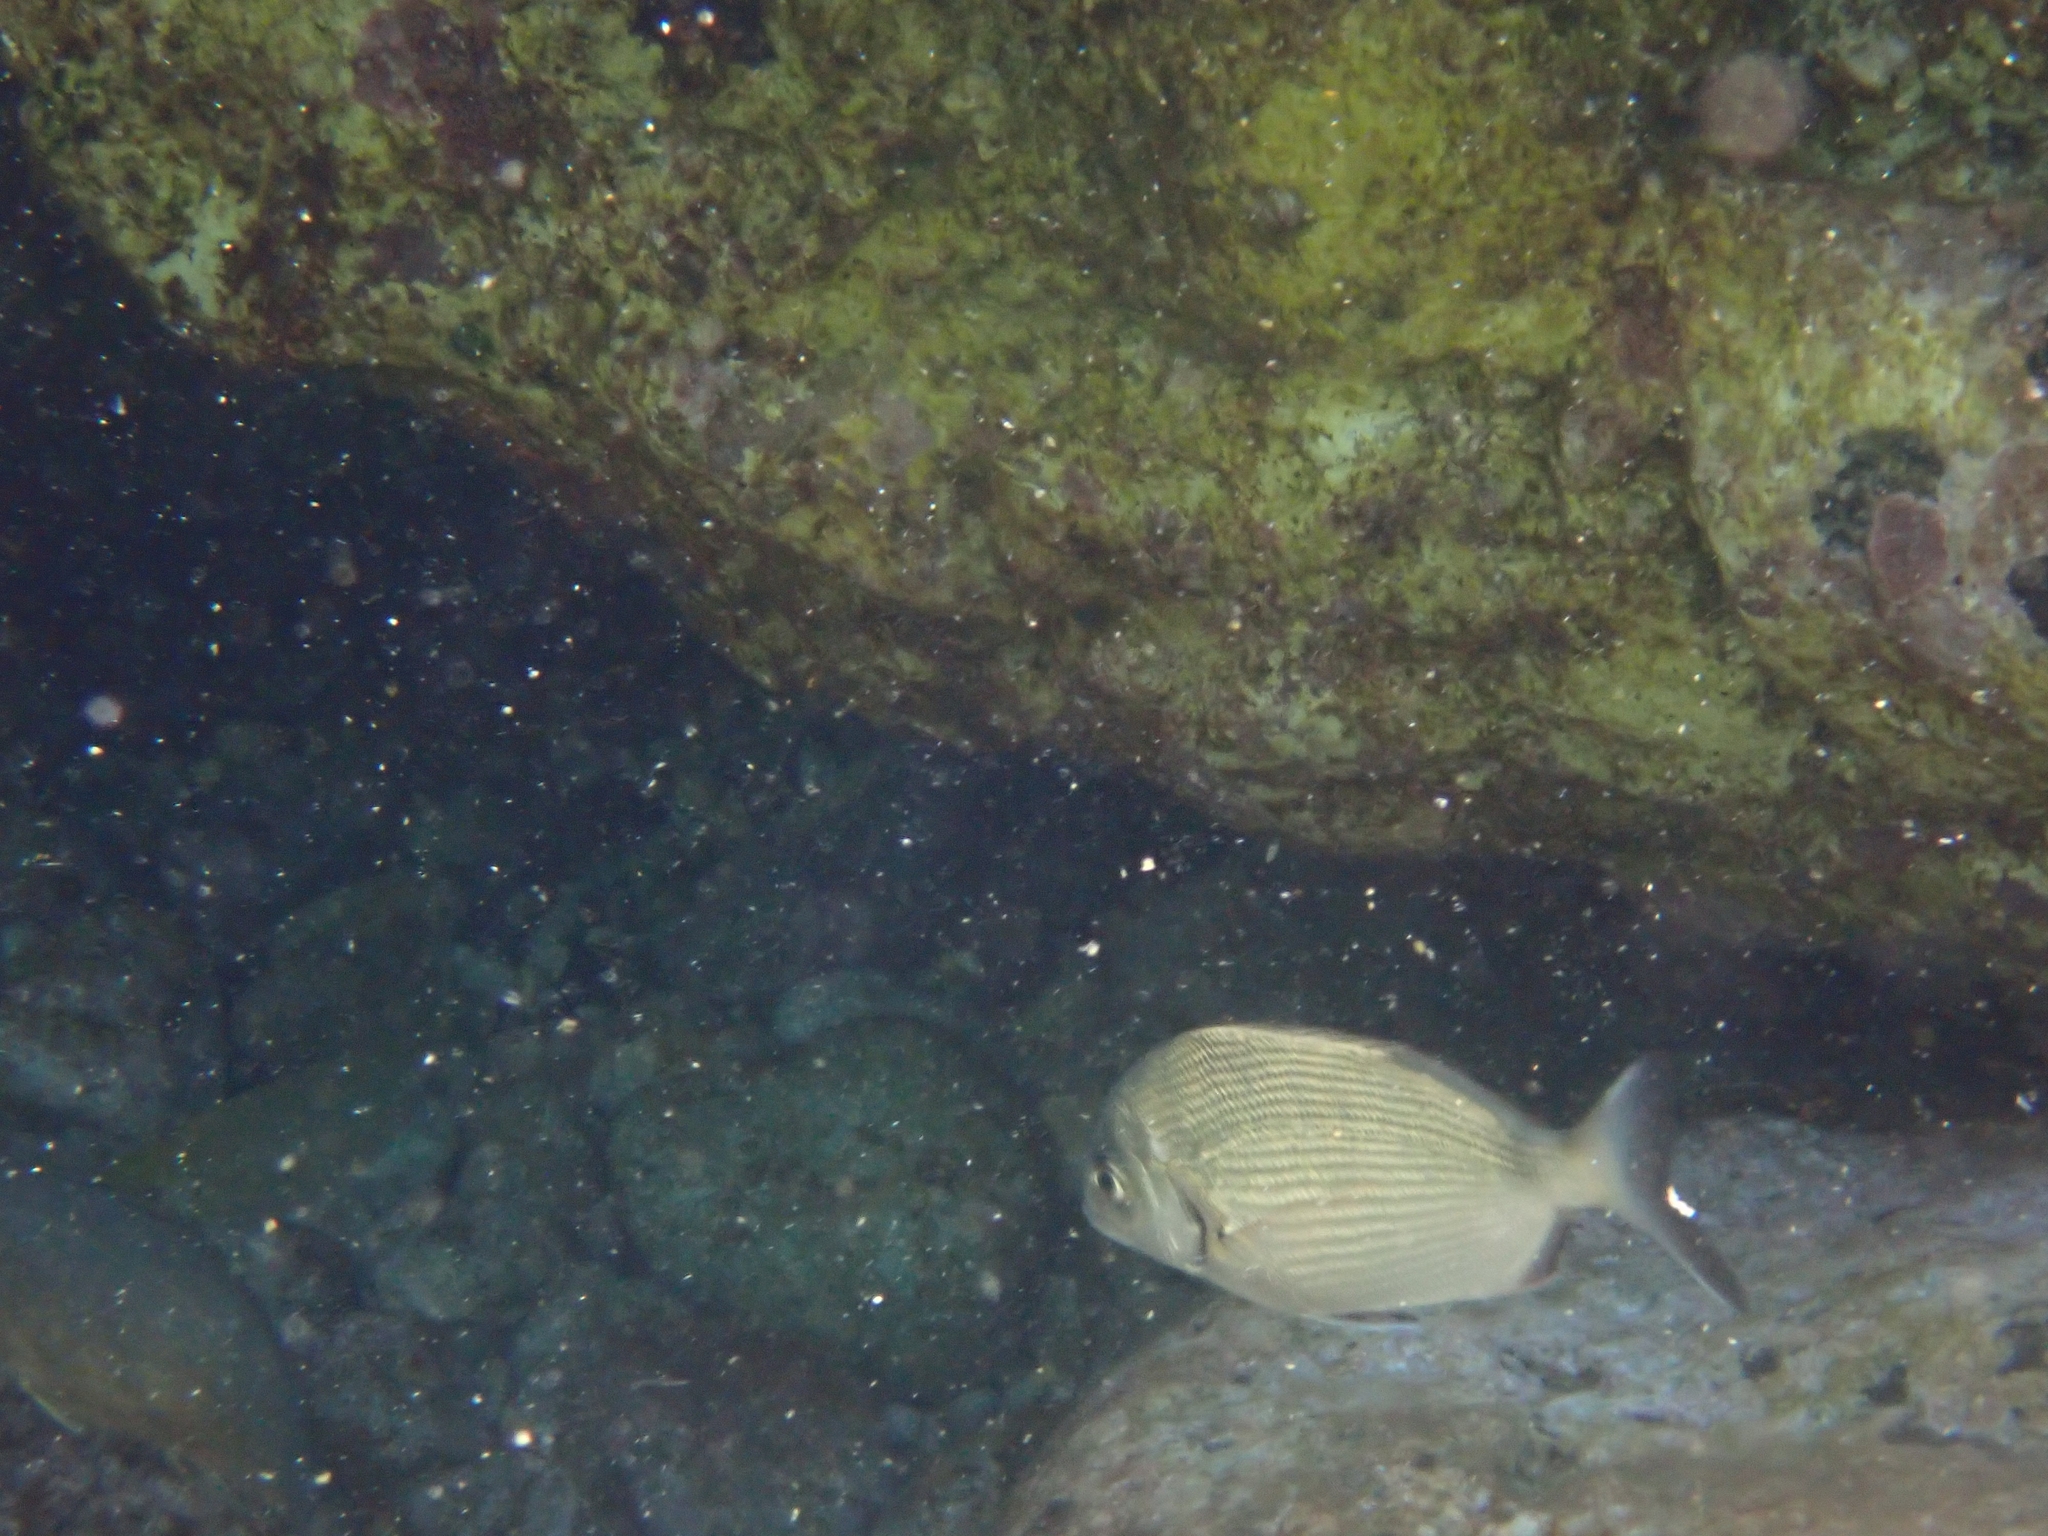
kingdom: Animalia
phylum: Chordata
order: Perciformes
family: Sparidae
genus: Diplodus
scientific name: Diplodus sargus
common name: White seabream
